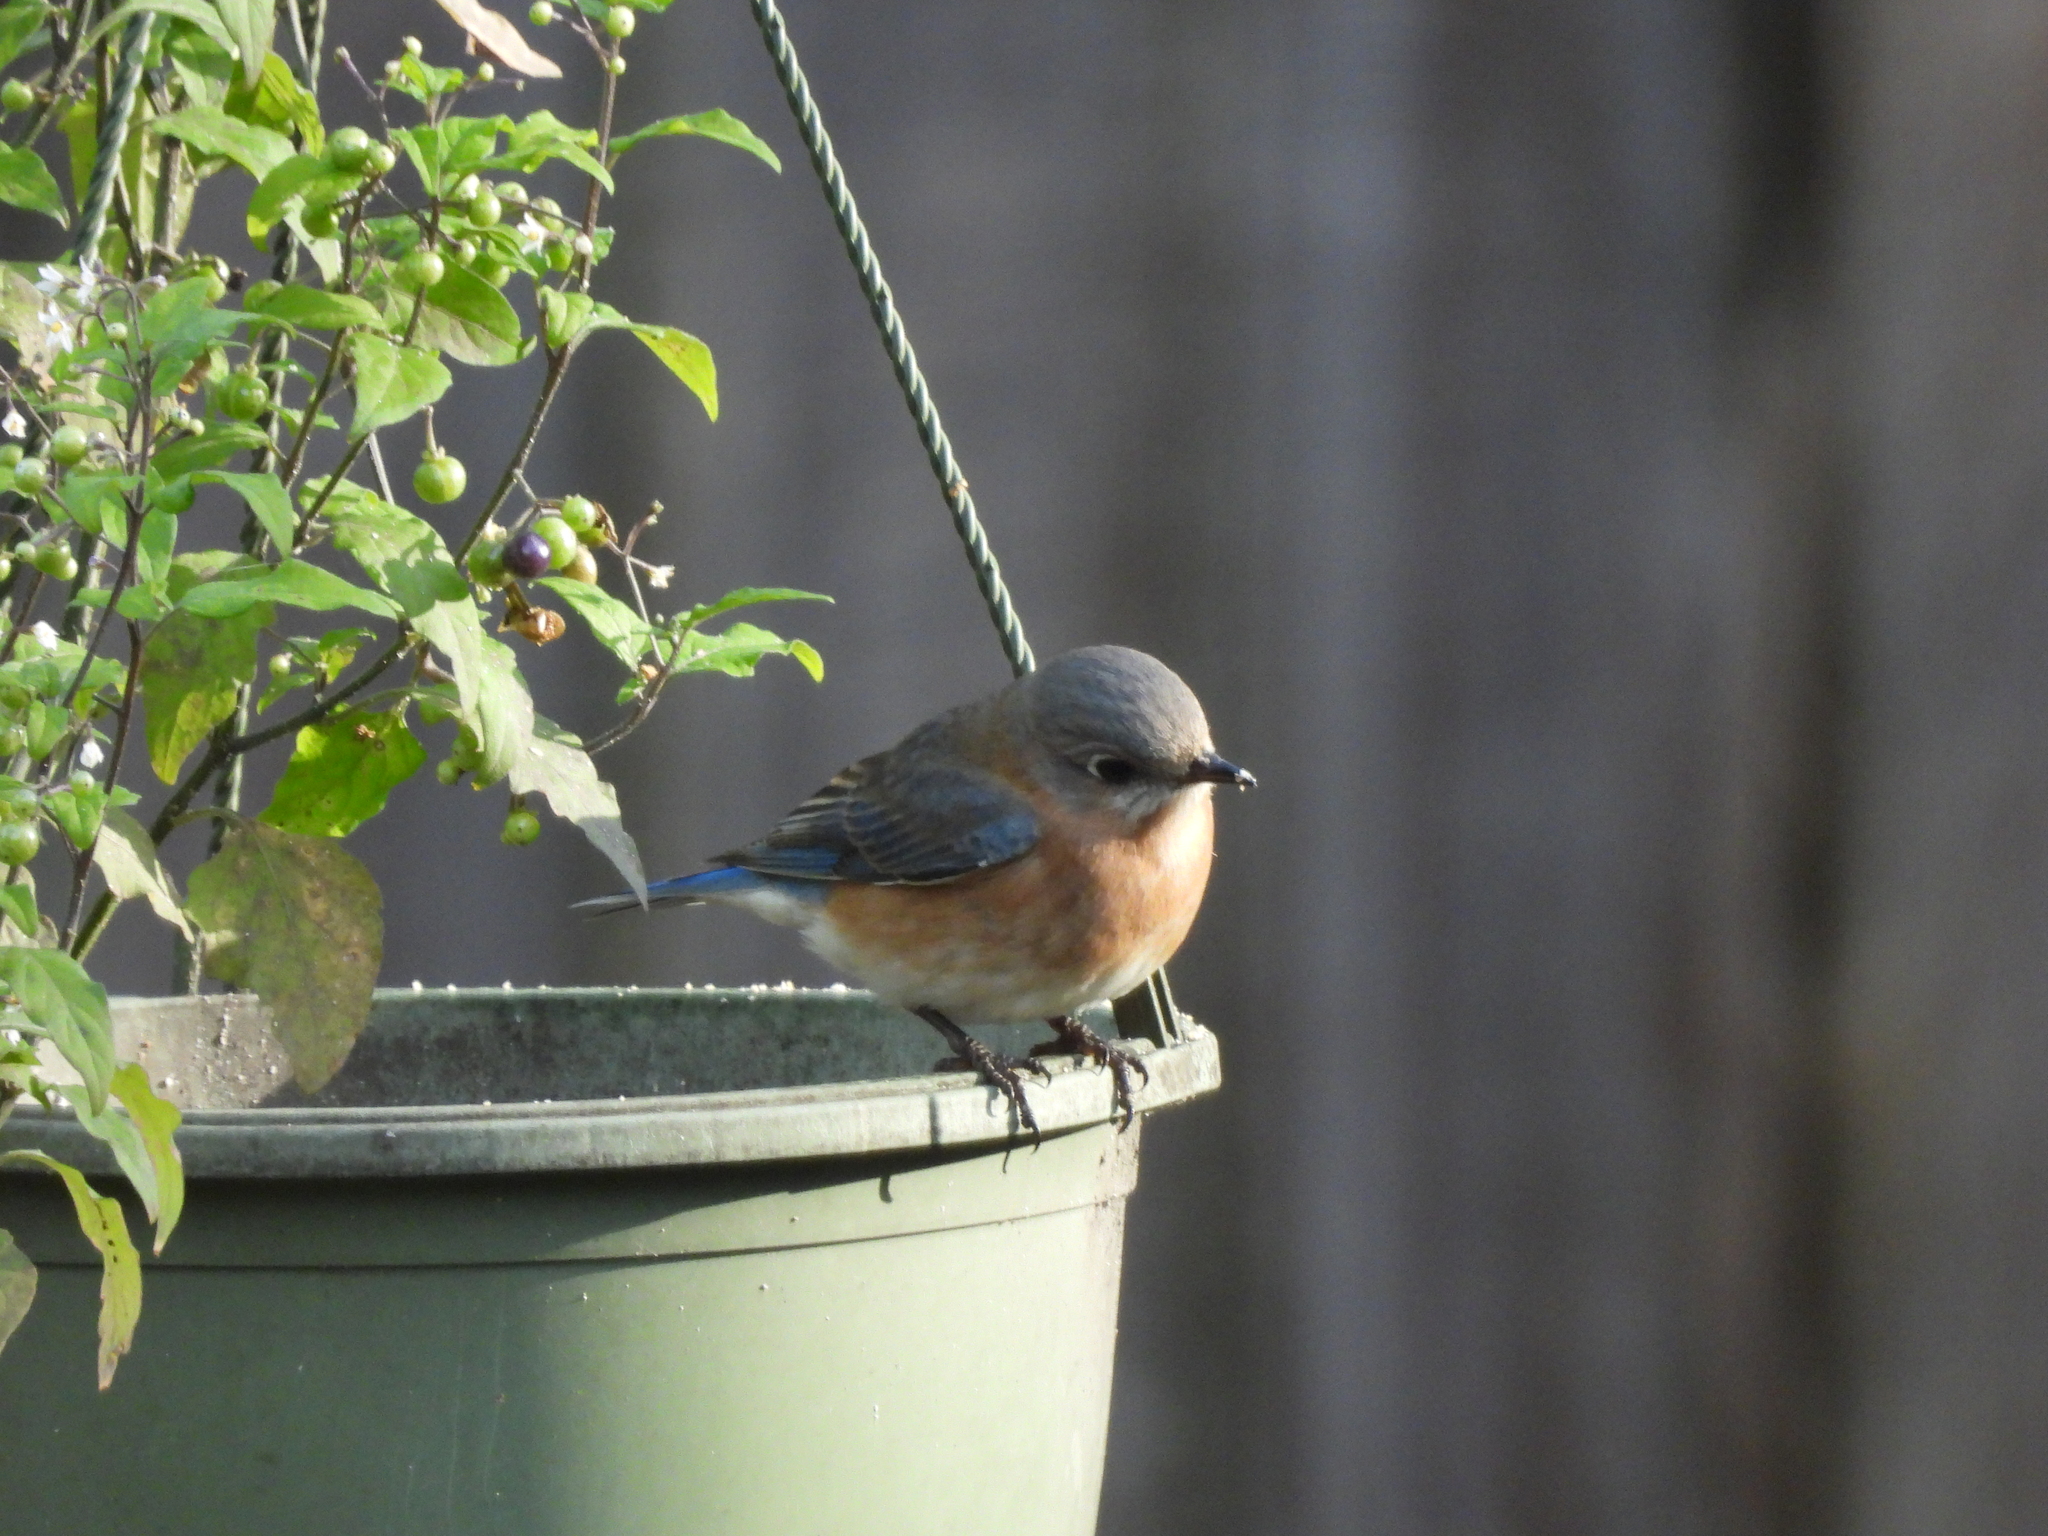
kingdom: Animalia
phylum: Chordata
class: Aves
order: Passeriformes
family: Turdidae
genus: Sialia
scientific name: Sialia sialis
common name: Eastern bluebird
